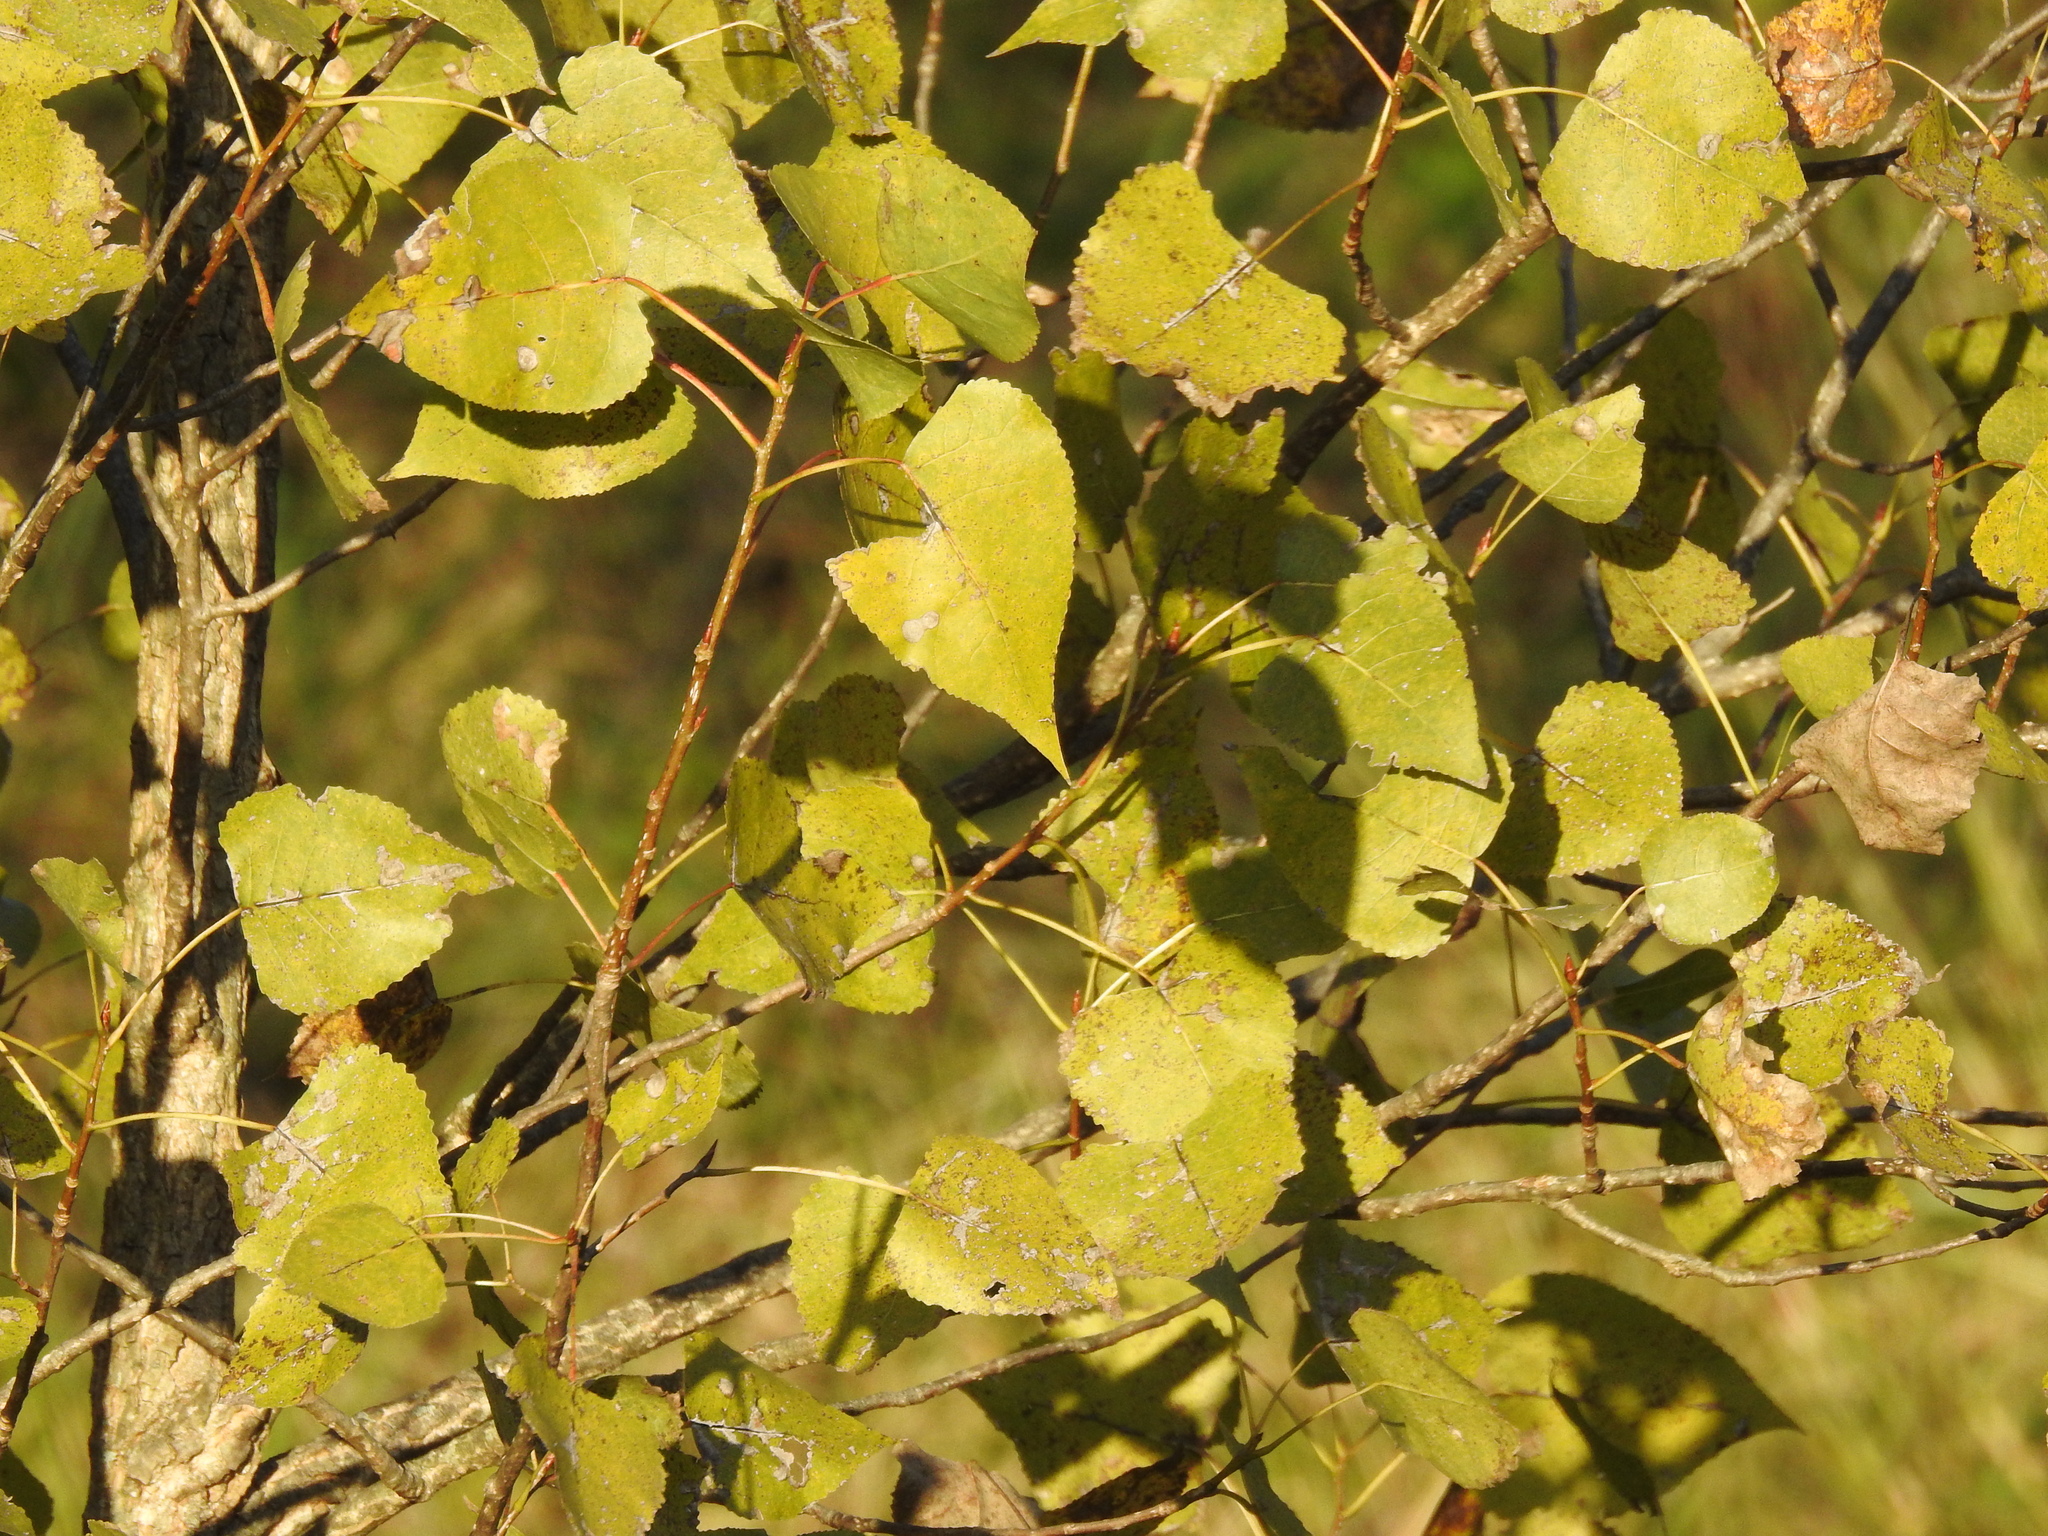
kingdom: Plantae
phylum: Tracheophyta
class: Magnoliopsida
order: Malpighiales
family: Salicaceae
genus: Populus
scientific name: Populus deltoides
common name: Eastern cottonwood
